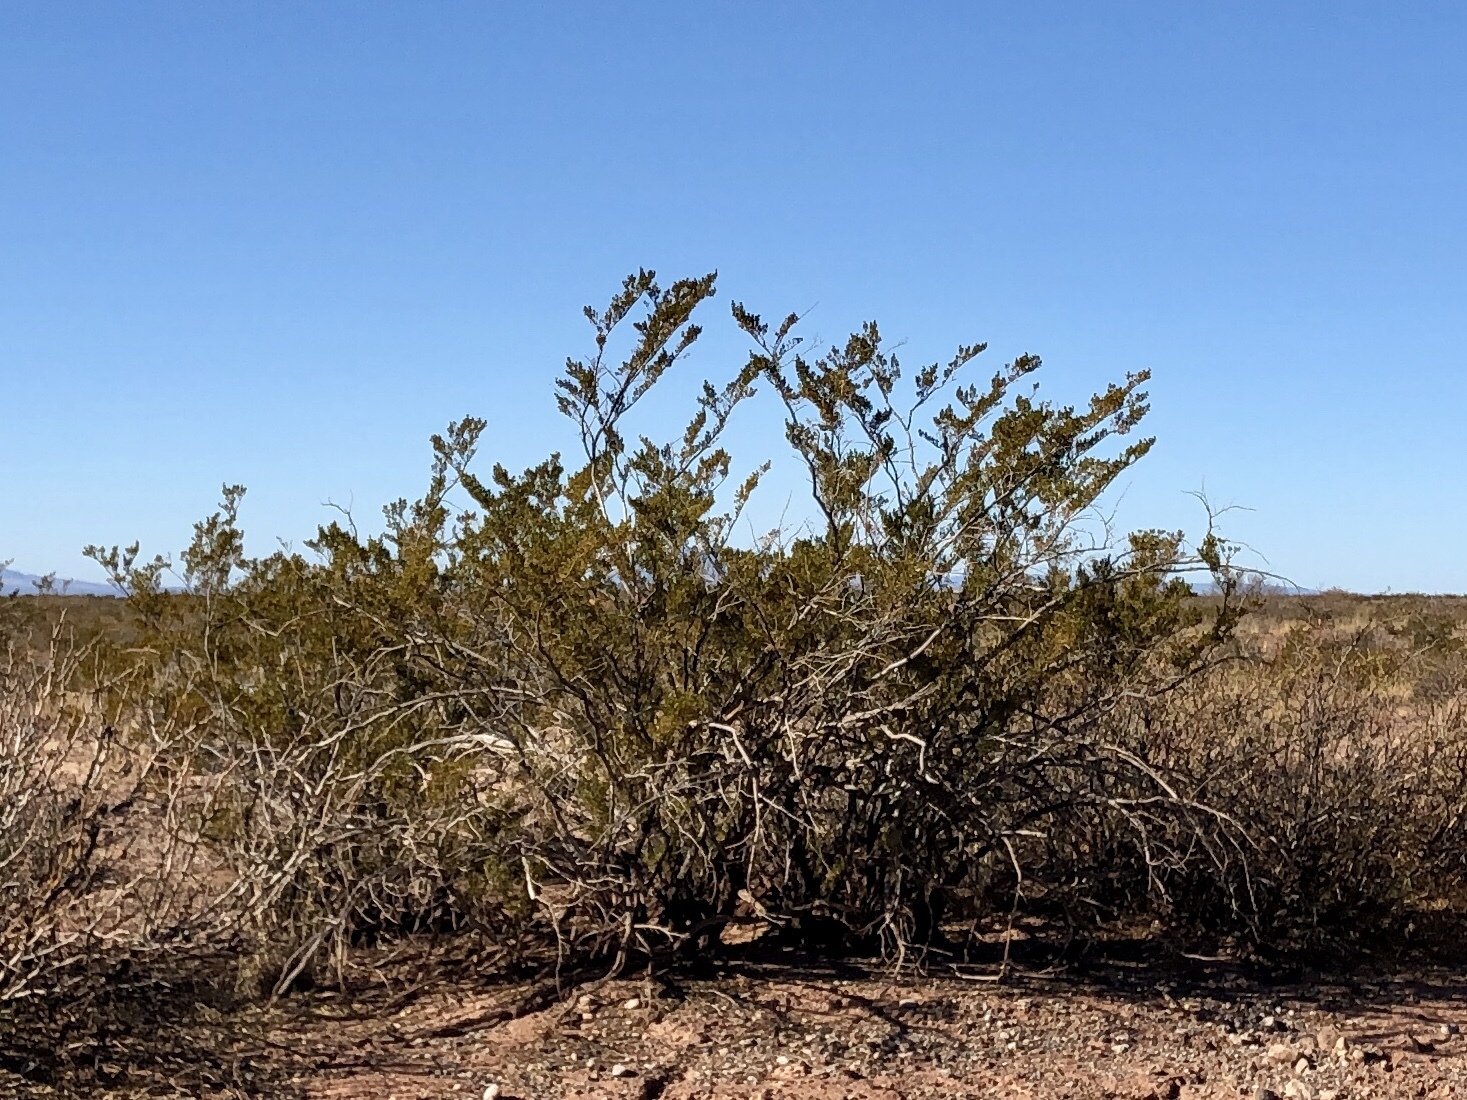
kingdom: Plantae
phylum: Tracheophyta
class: Magnoliopsida
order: Zygophyllales
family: Zygophyllaceae
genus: Larrea
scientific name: Larrea tridentata
